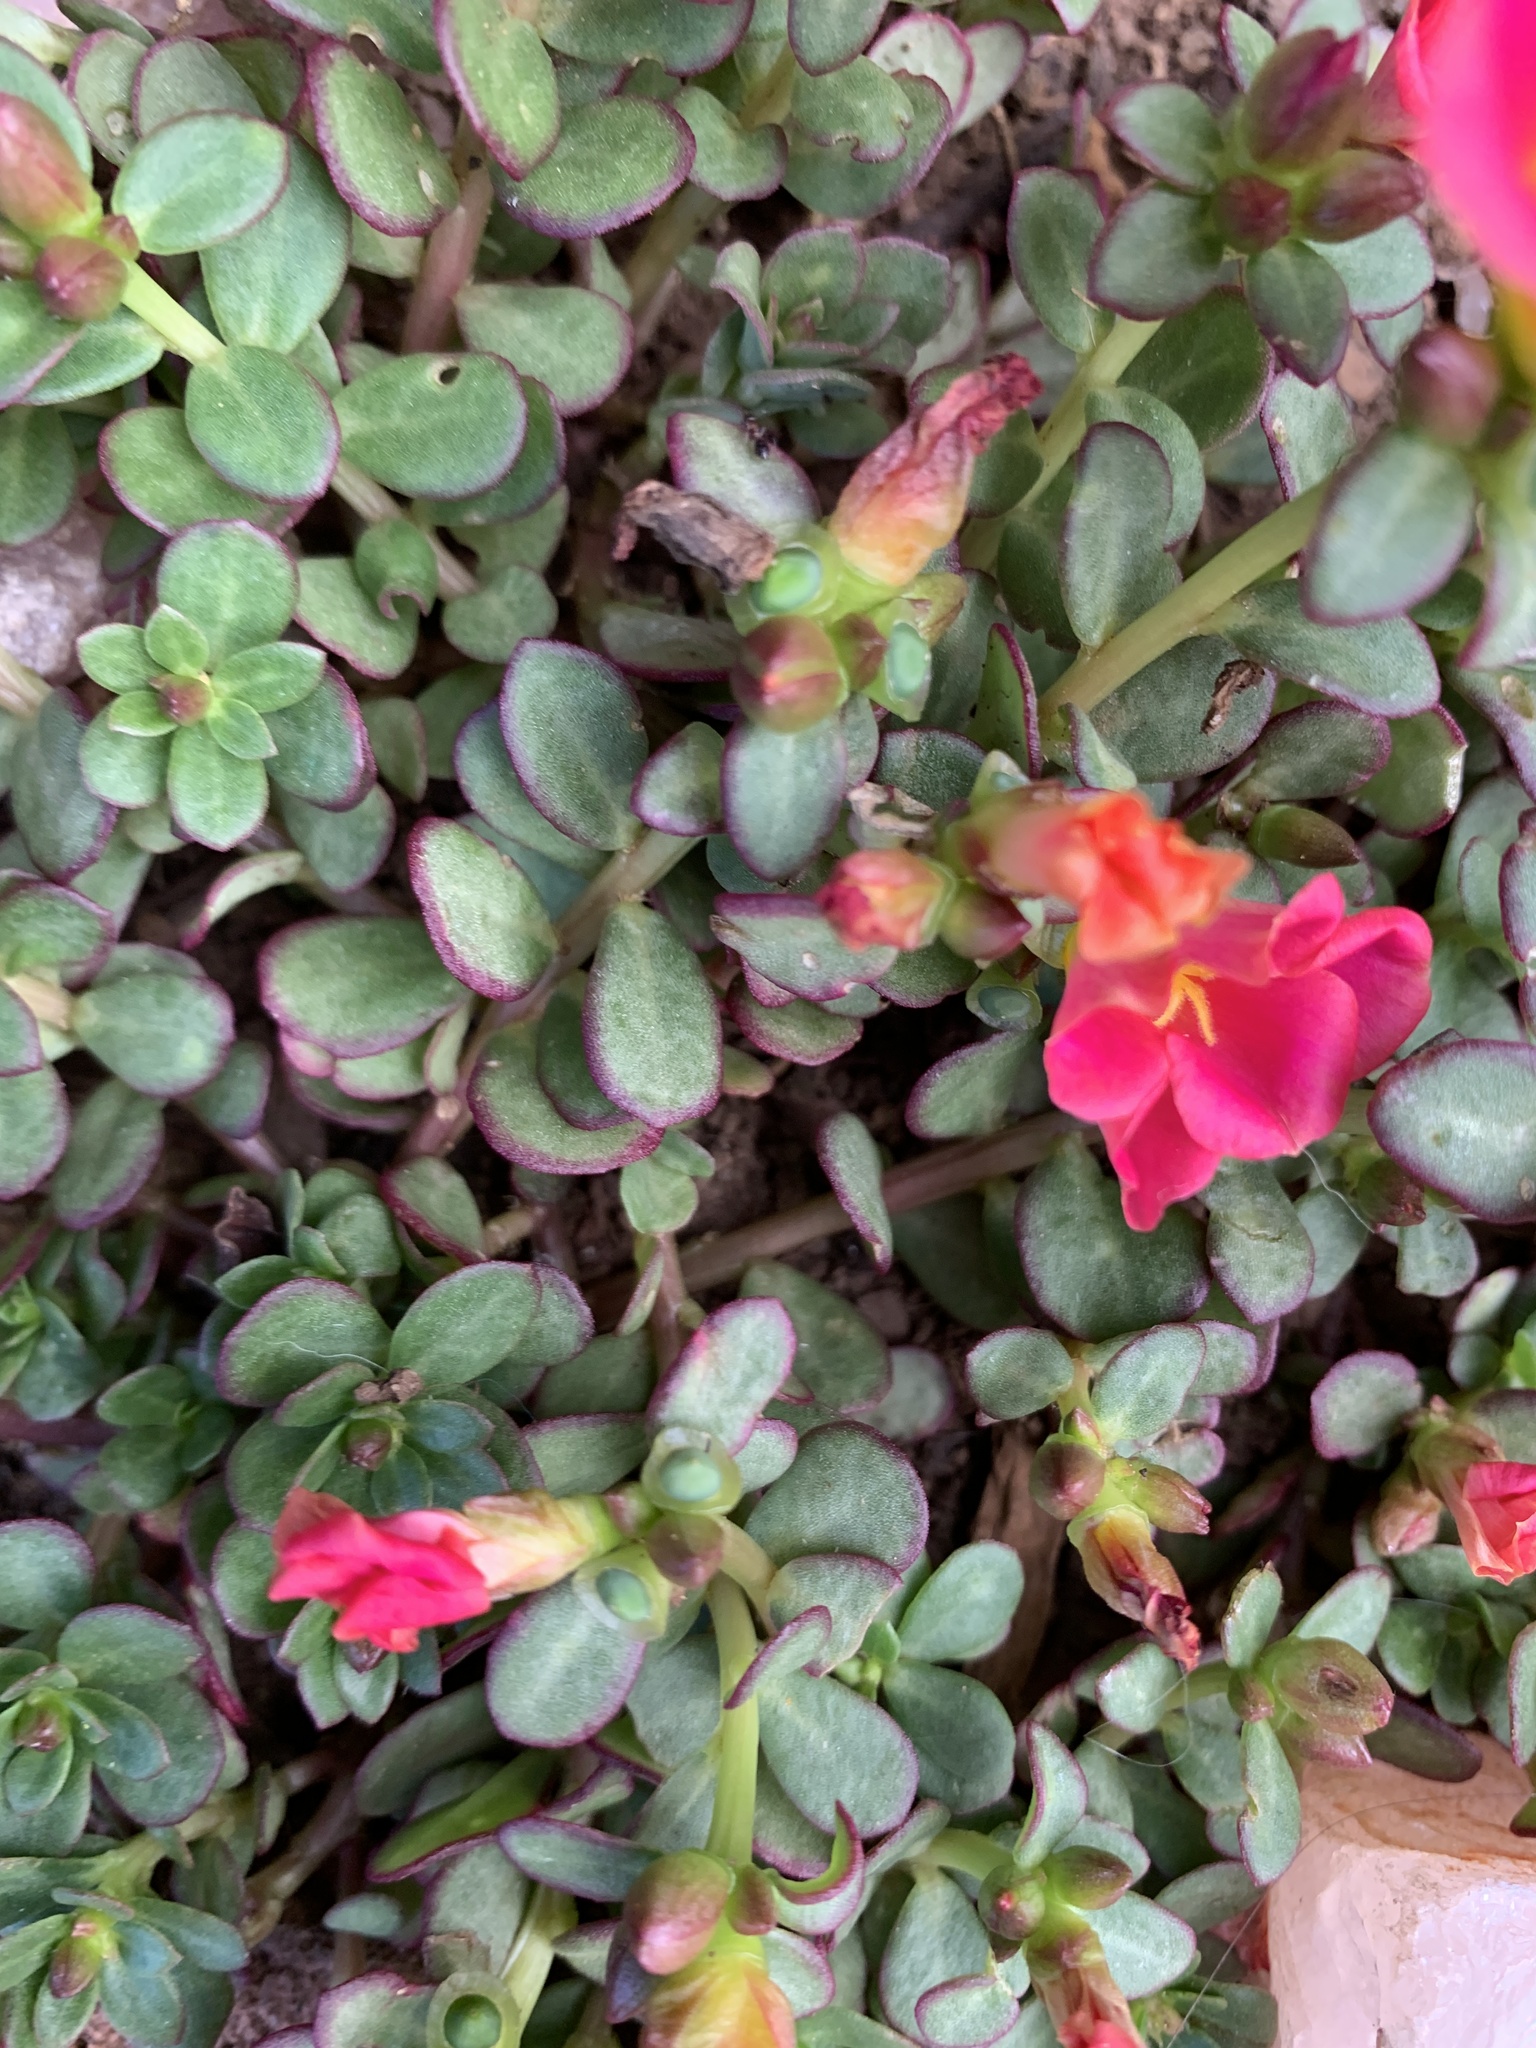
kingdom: Plantae
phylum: Tracheophyta
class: Magnoliopsida
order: Caryophyllales
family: Portulacaceae
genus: Portulaca
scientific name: Portulaca umbraticola
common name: Wingpod purslane
